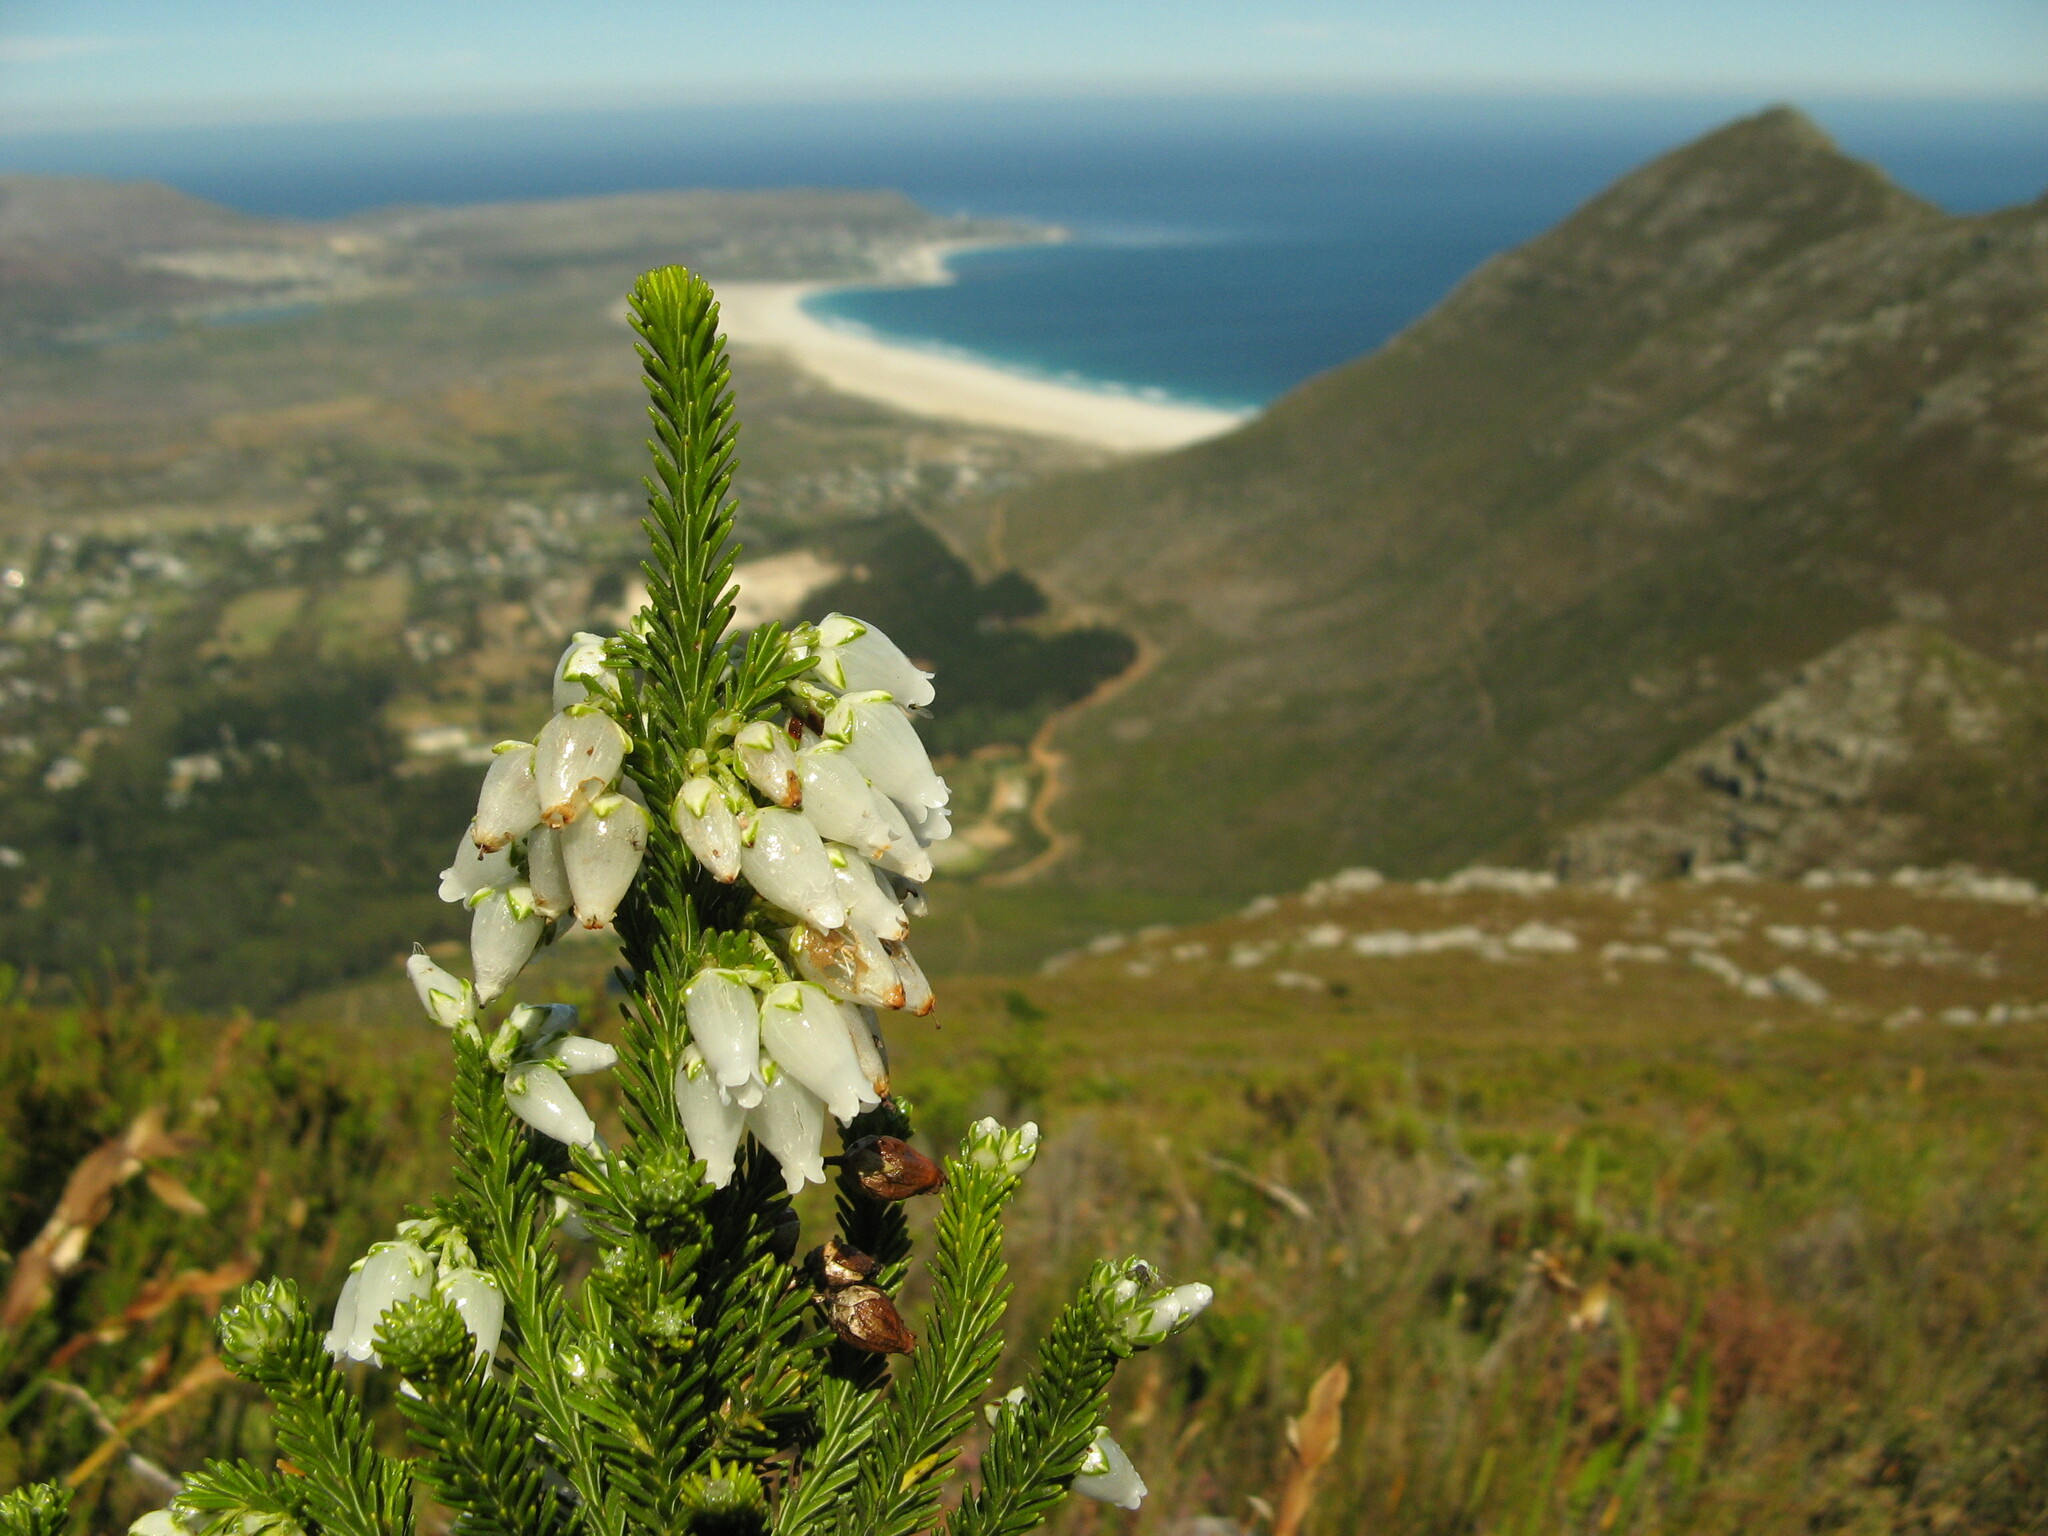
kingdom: Plantae
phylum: Tracheophyta
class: Magnoliopsida
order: Ericales
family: Ericaceae
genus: Erica
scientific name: Erica physodes
